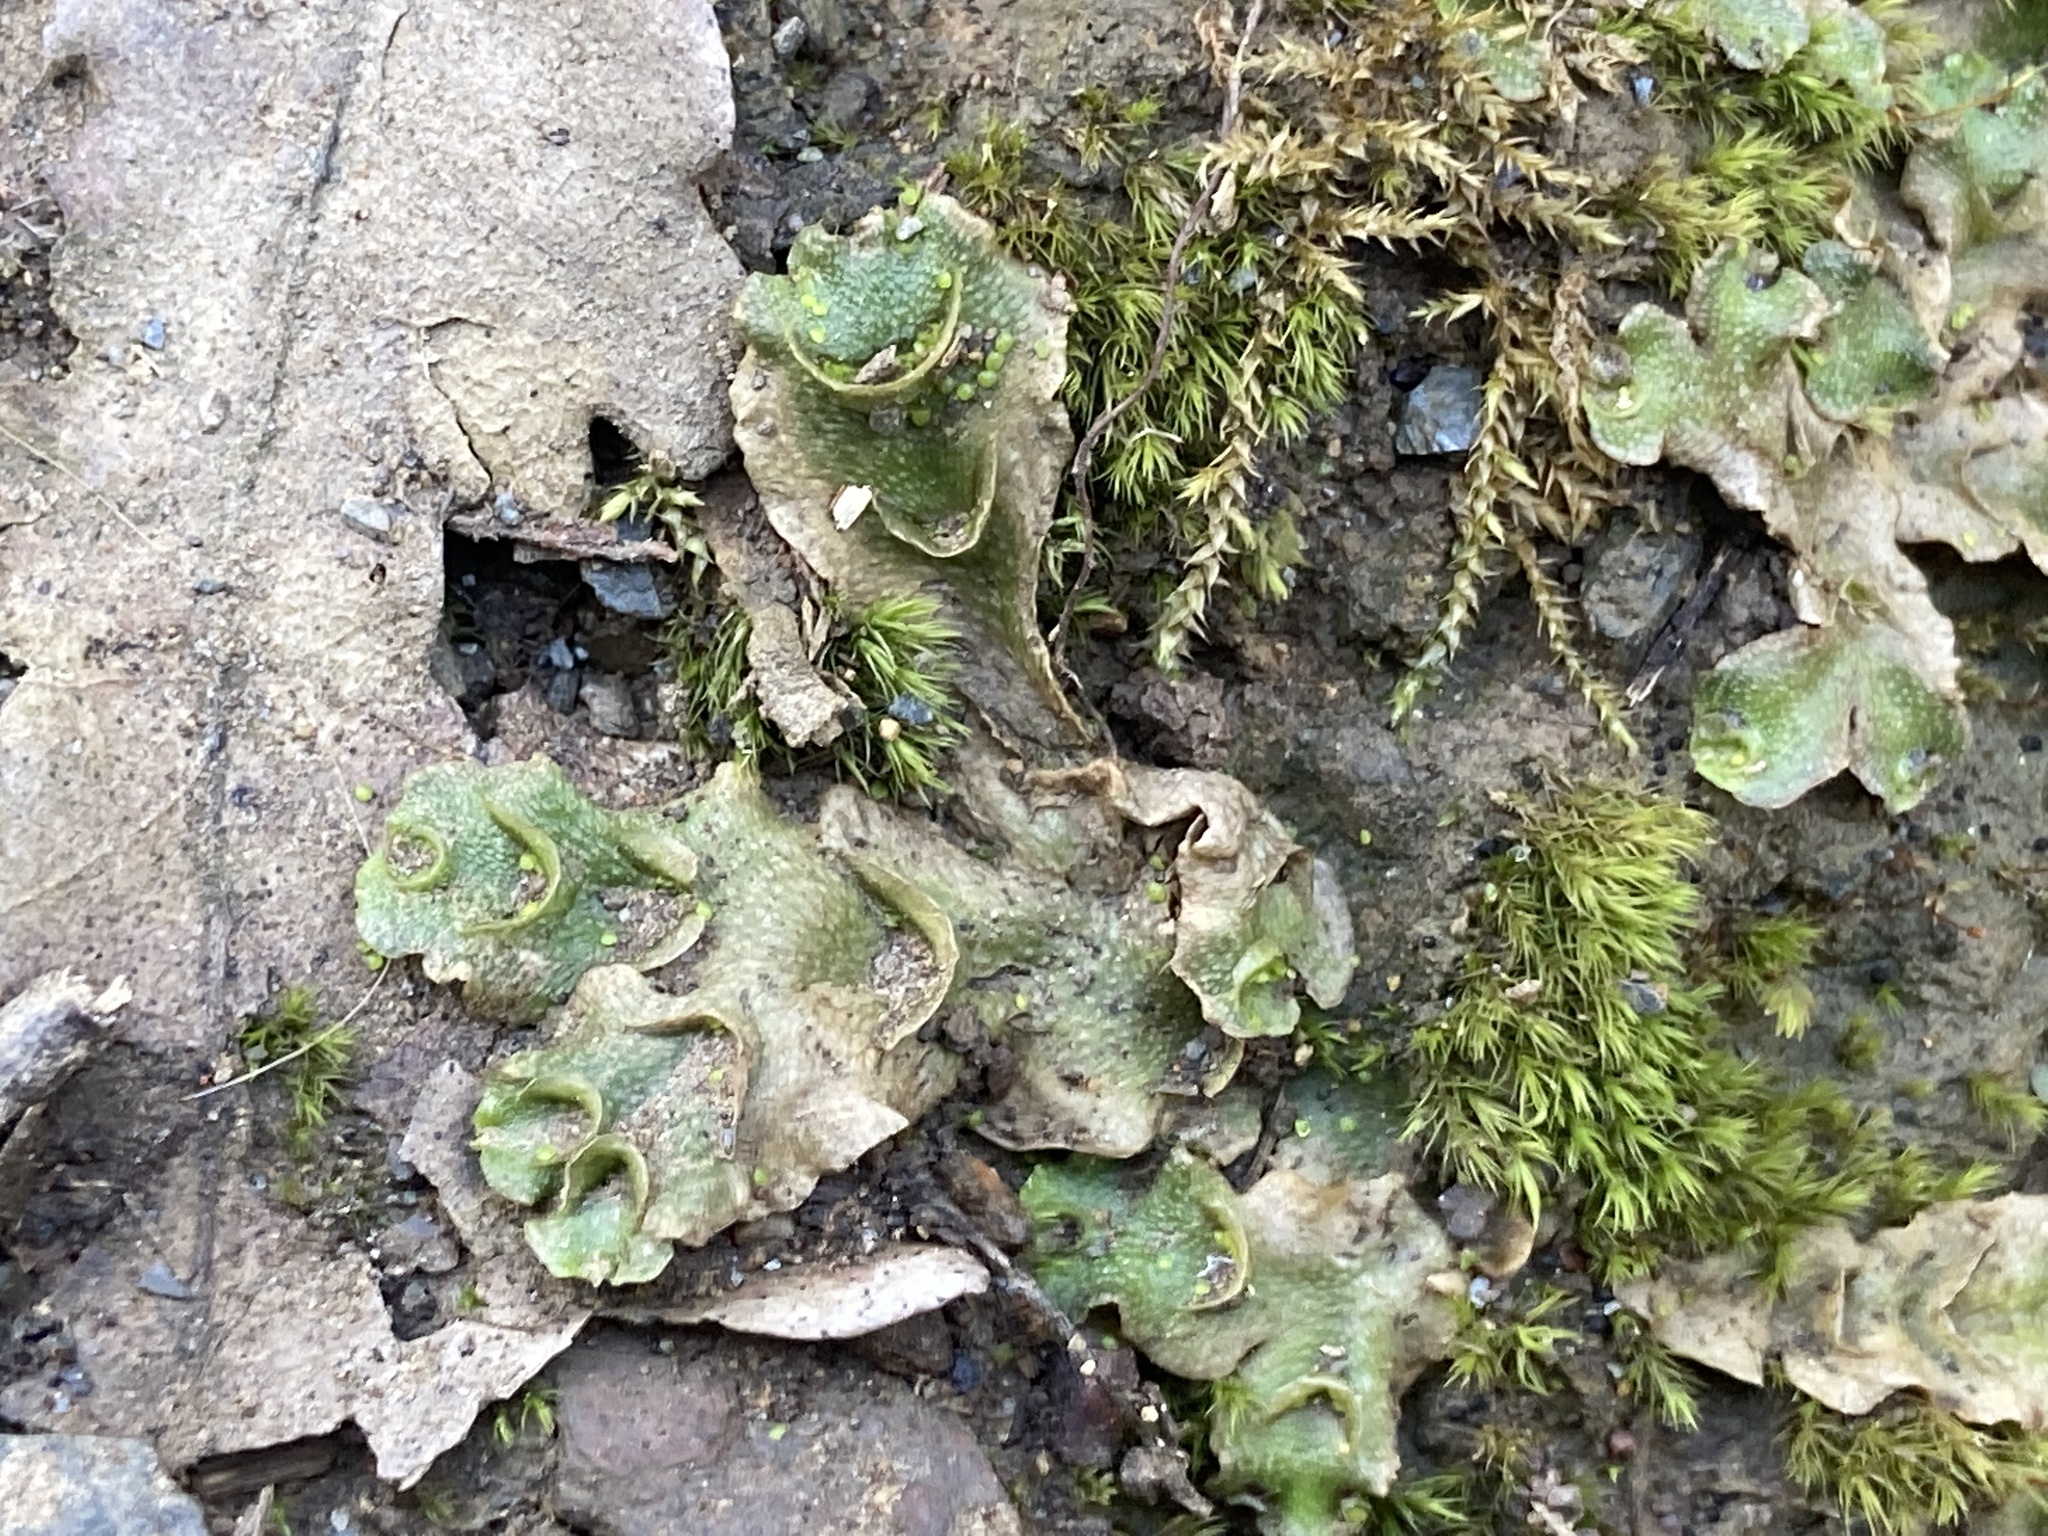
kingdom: Plantae
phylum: Marchantiophyta
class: Marchantiopsida
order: Lunulariales
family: Lunulariaceae
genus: Lunularia
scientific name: Lunularia cruciata
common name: Crescent-cup liverwort
